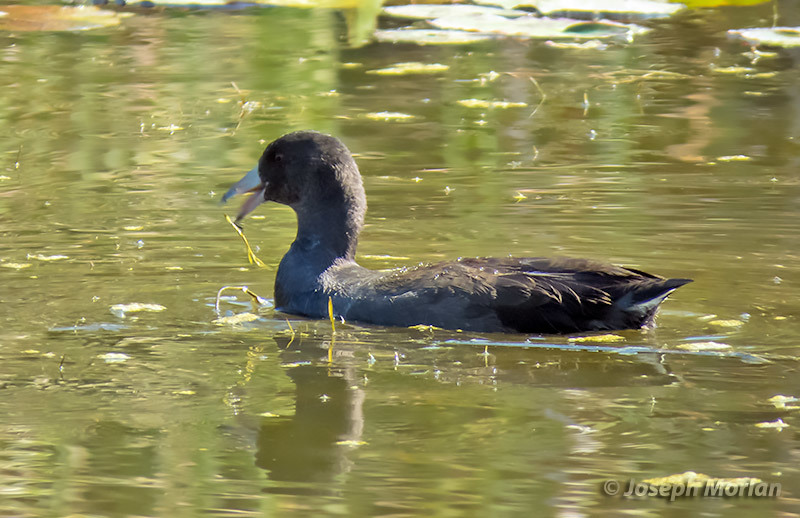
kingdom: Animalia
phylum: Chordata
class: Aves
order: Gruiformes
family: Rallidae
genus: Fulica
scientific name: Fulica americana
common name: American coot
